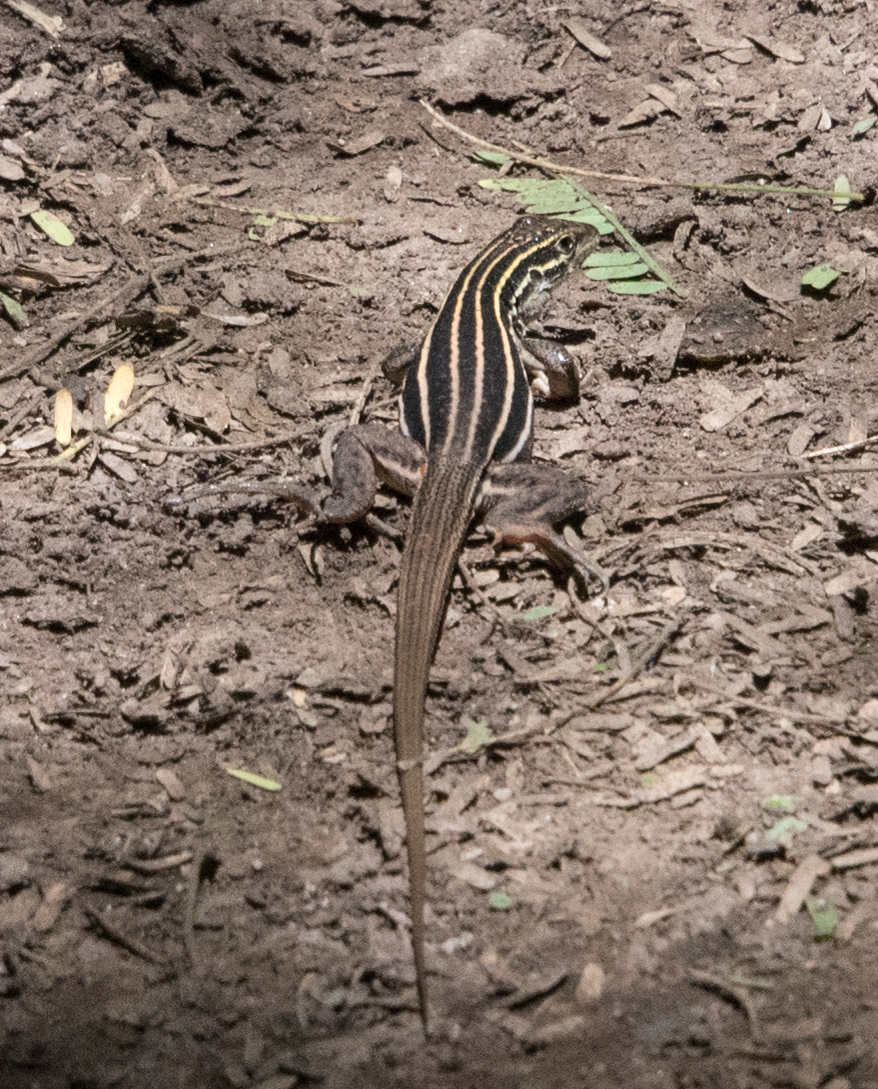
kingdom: Animalia
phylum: Chordata
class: Squamata
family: Teiidae
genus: Aspidoscelis
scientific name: Aspidoscelis uniparens
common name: Desert grassland whiptail
